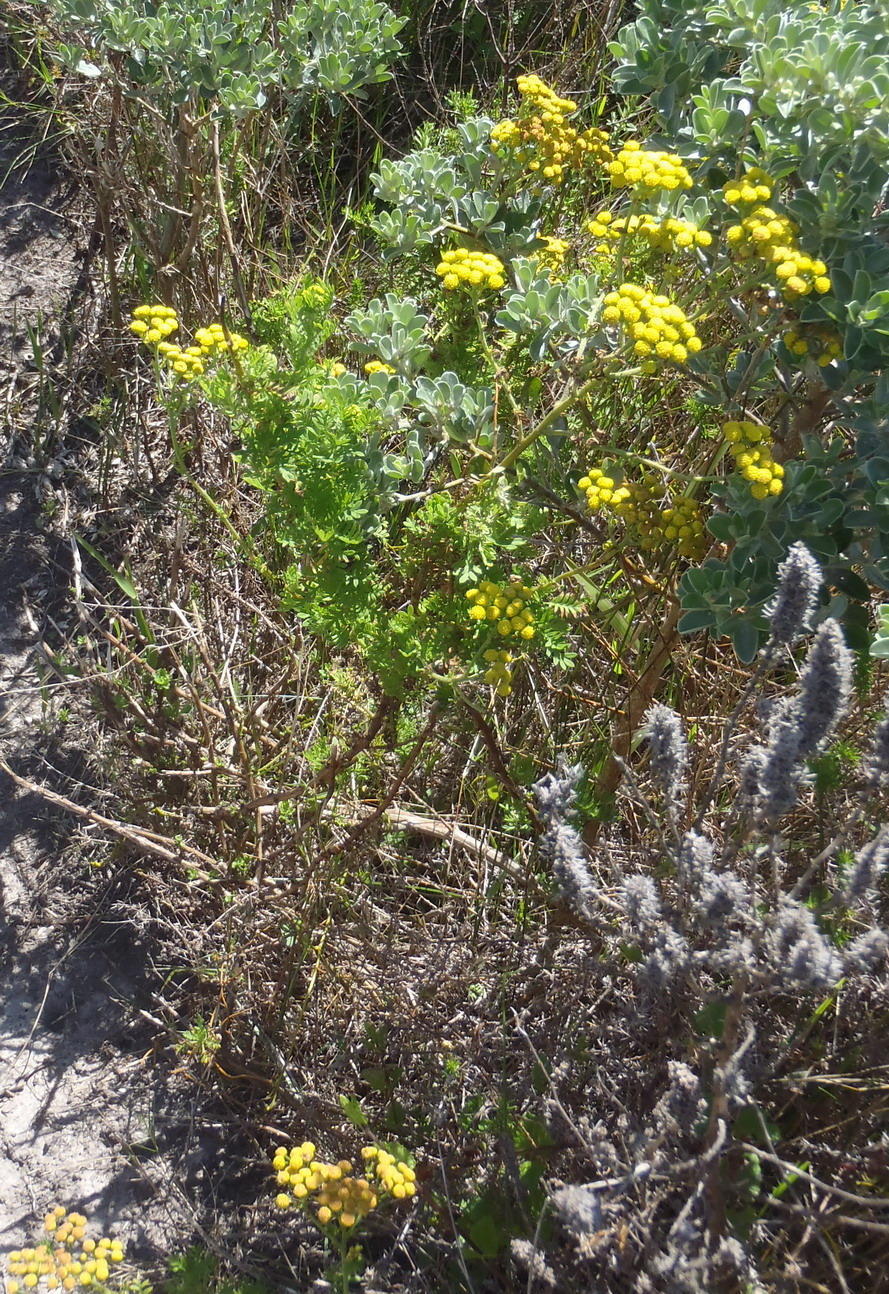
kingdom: Plantae
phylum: Tracheophyta
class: Magnoliopsida
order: Asterales
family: Asteraceae
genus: Hippia
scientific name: Hippia frutescens
